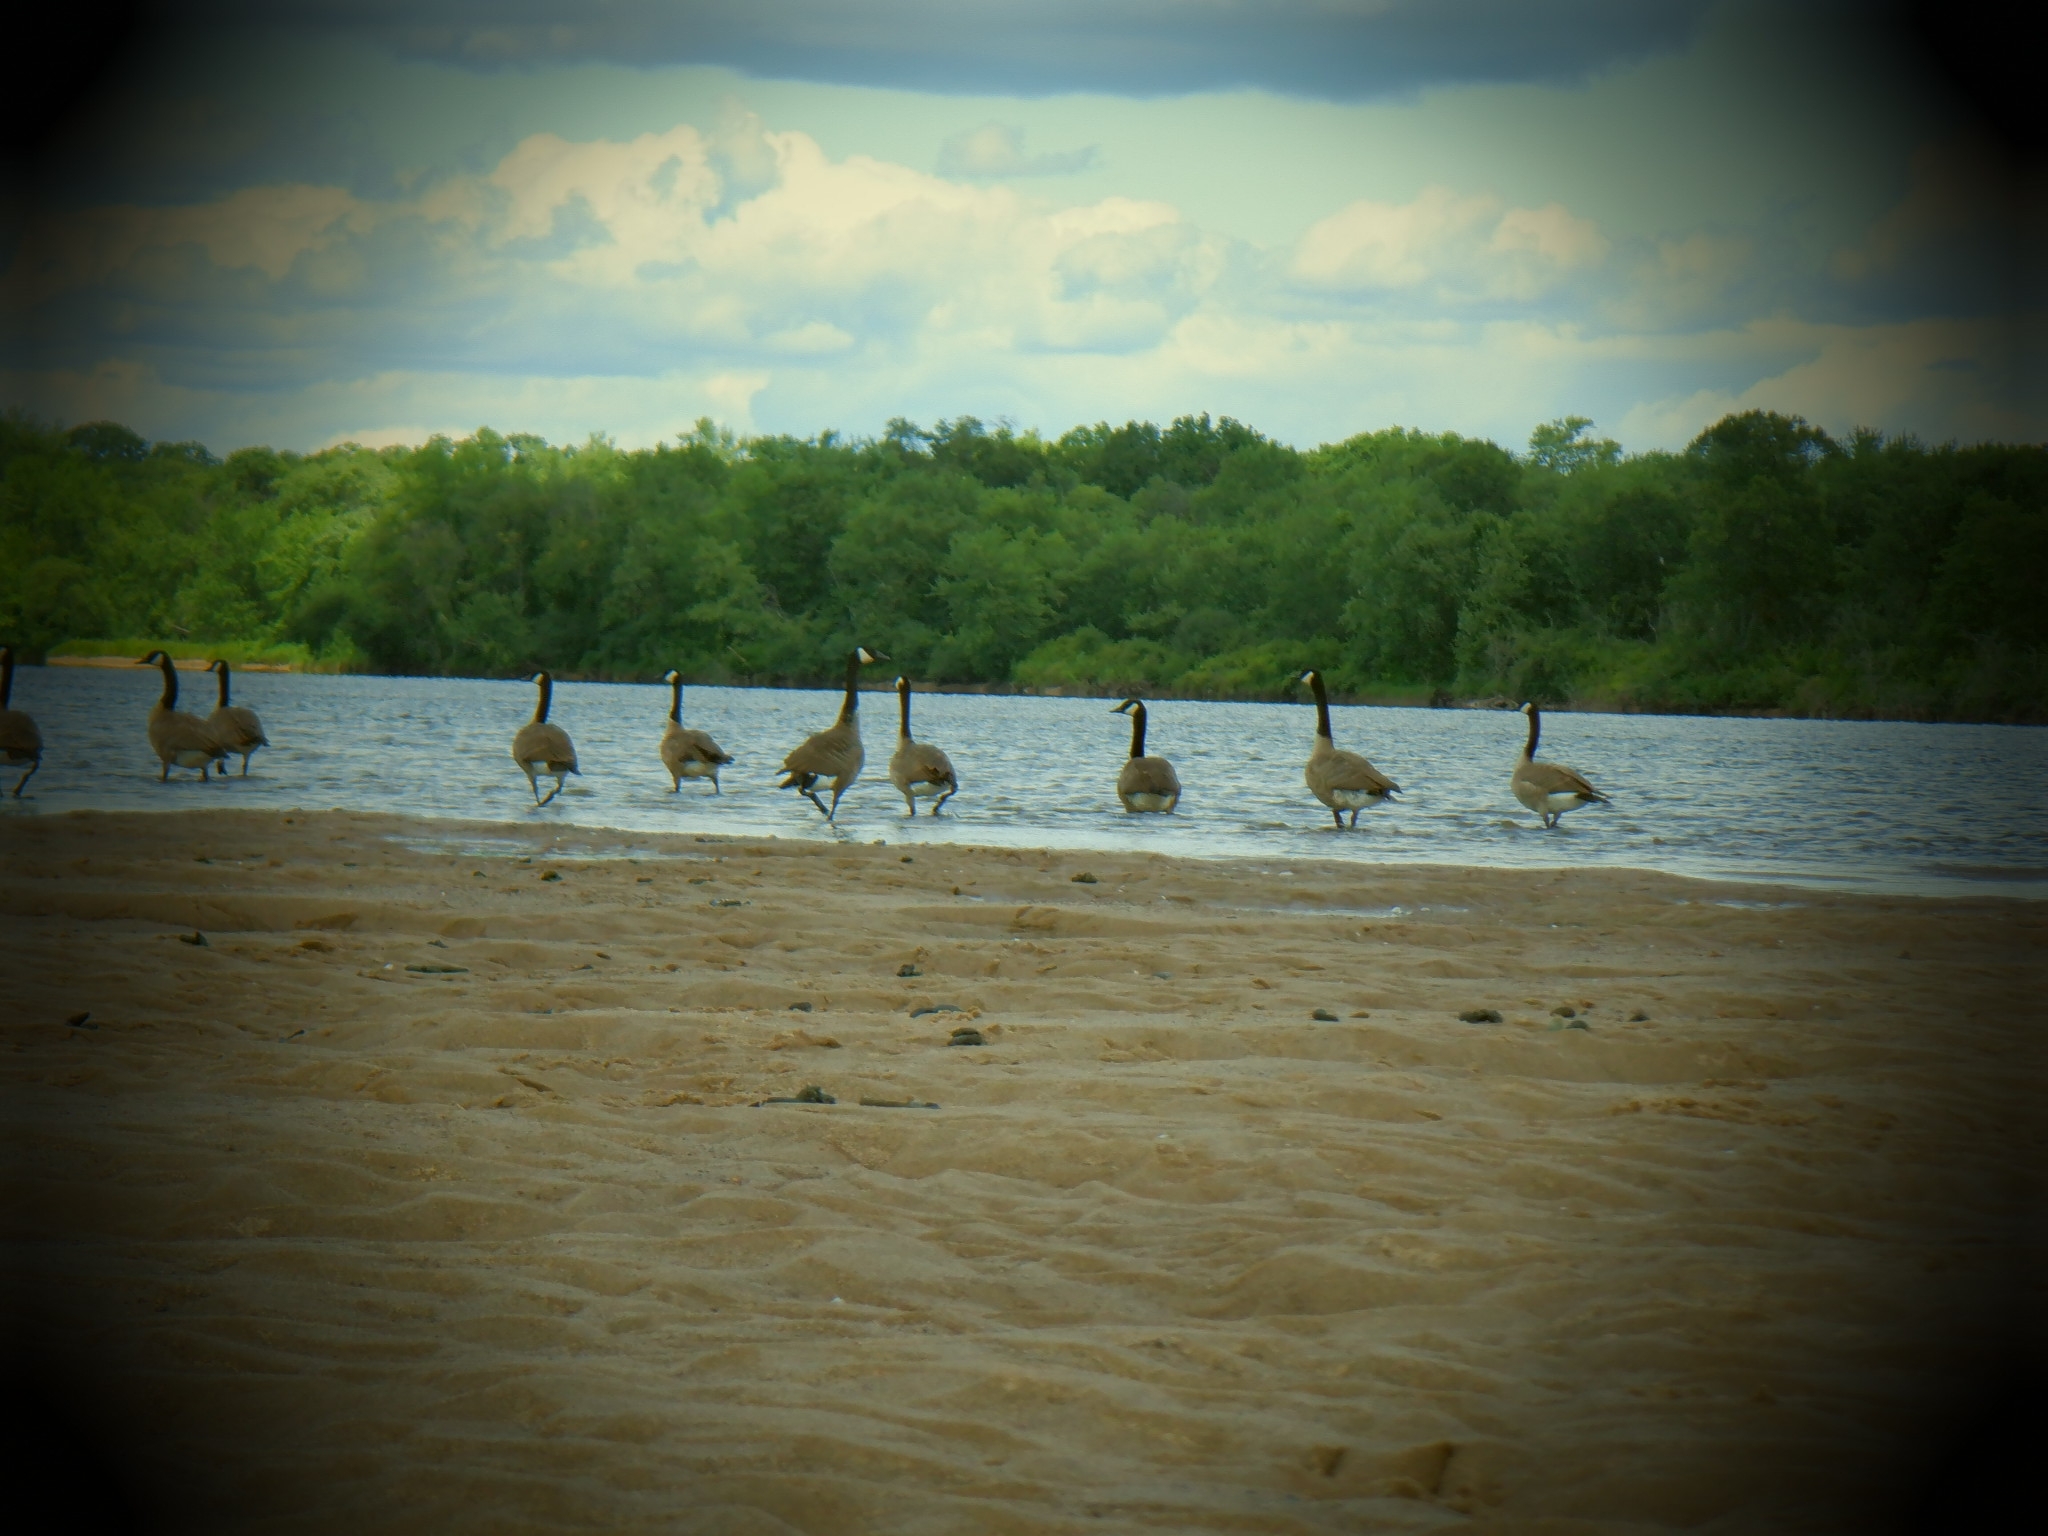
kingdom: Animalia
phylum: Chordata
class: Aves
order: Anseriformes
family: Anatidae
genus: Branta
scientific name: Branta canadensis
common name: Canada goose
